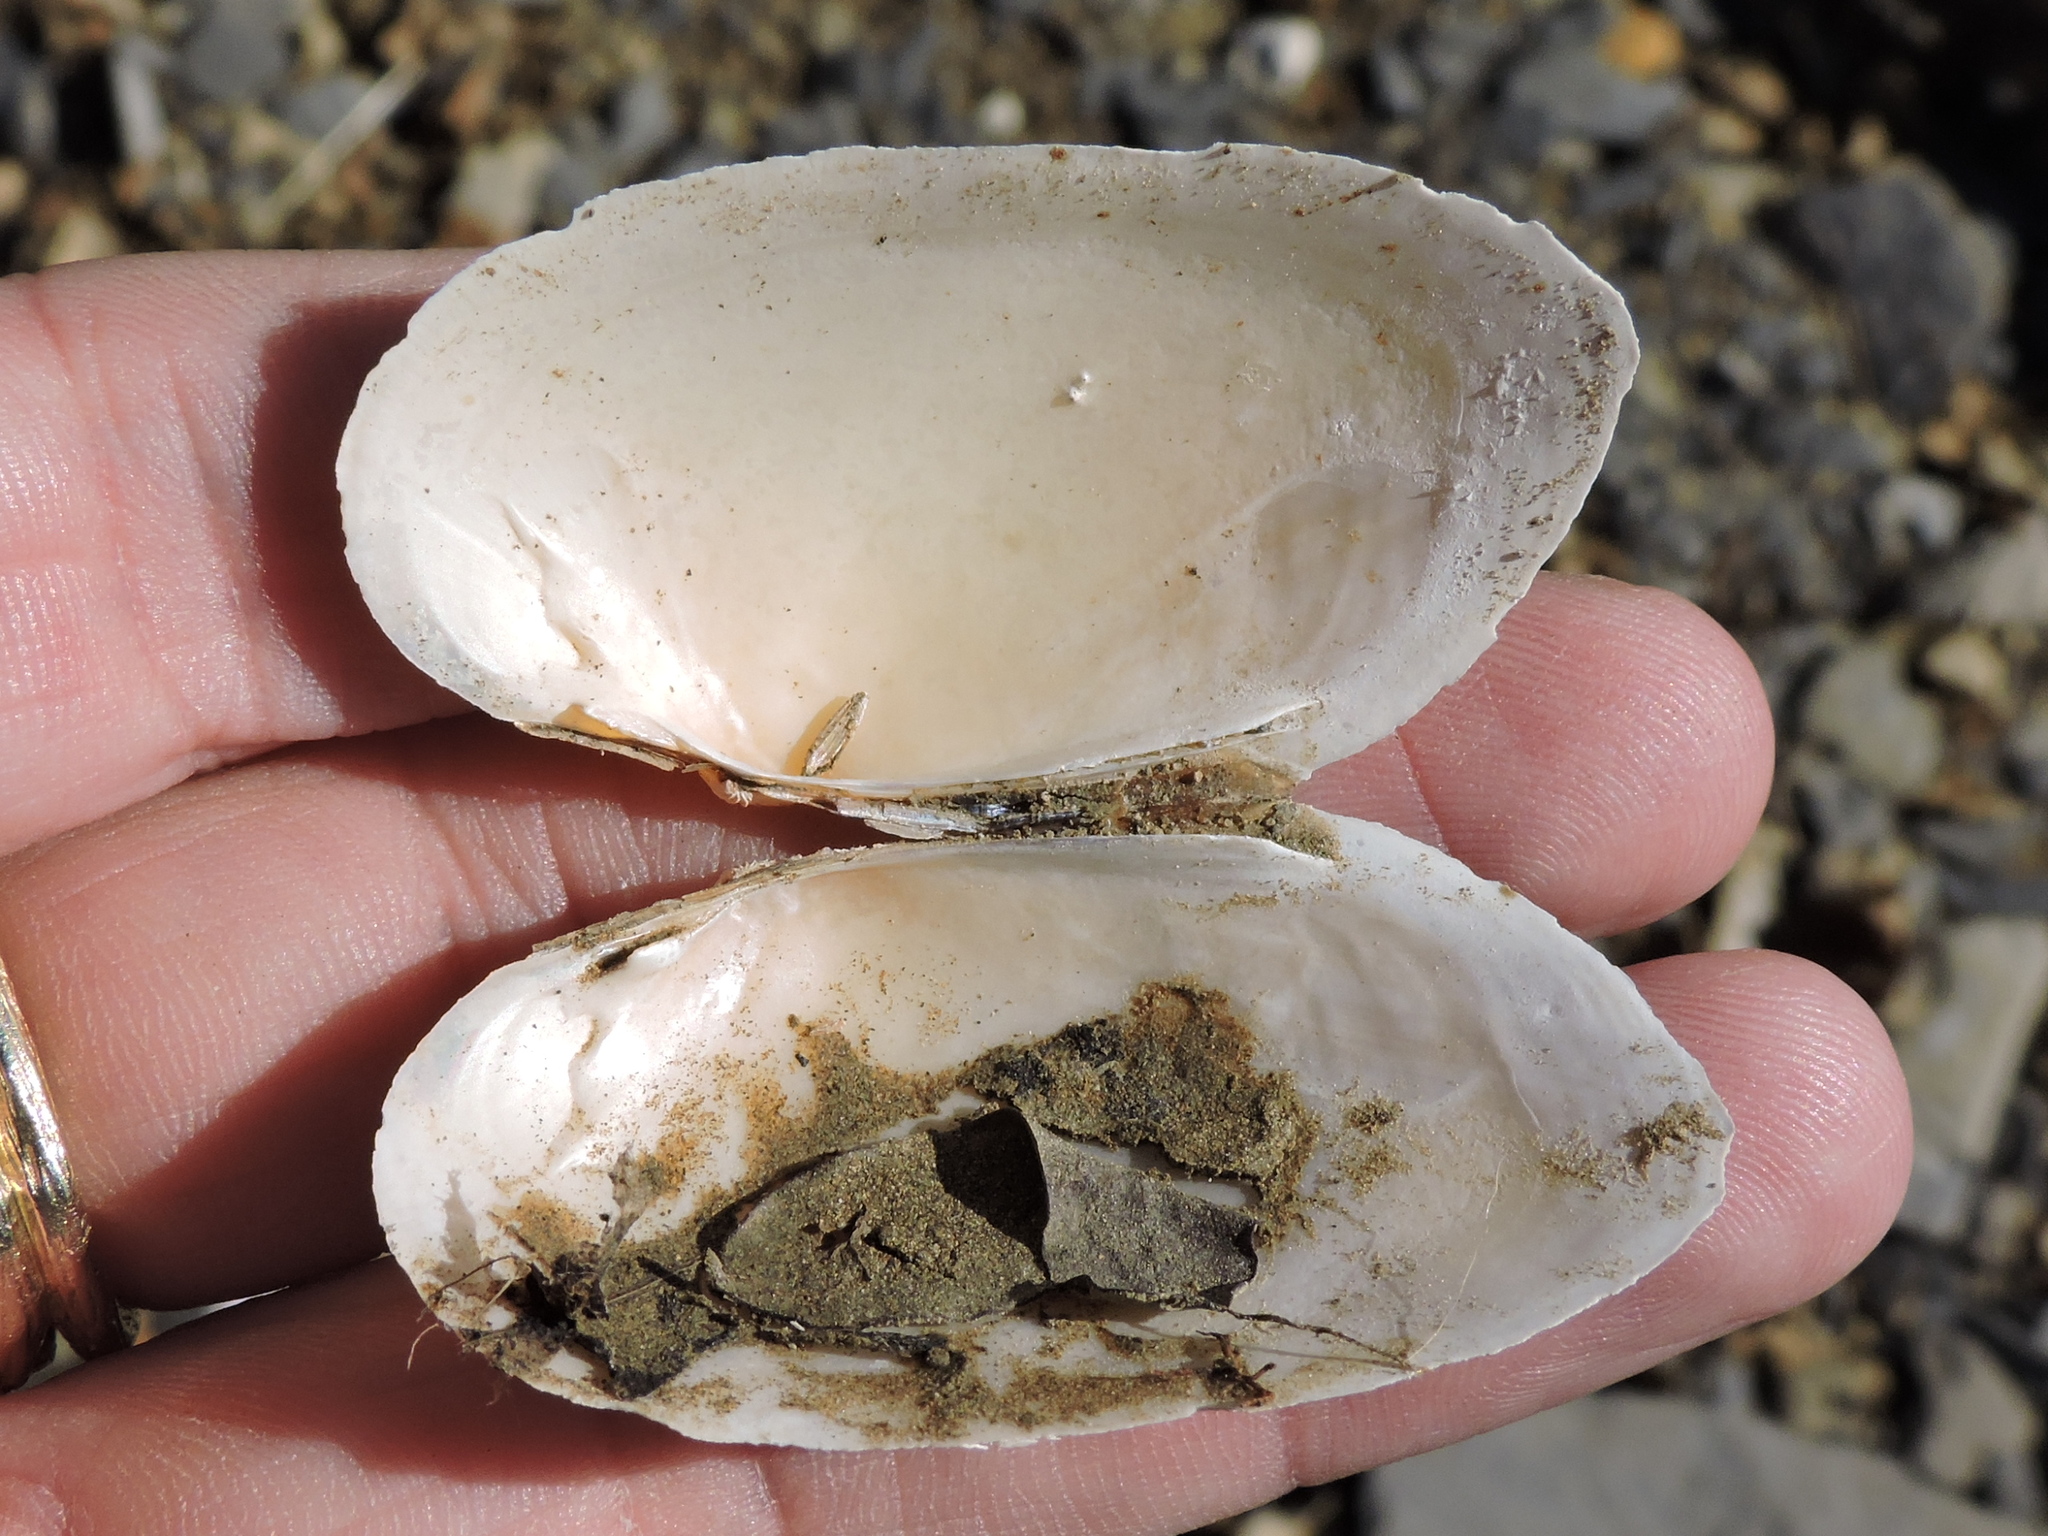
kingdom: Animalia
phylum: Mollusca
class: Bivalvia
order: Unionida
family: Unionidae
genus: Uniomerus
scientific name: Uniomerus tetralasmus
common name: Pondhorn
